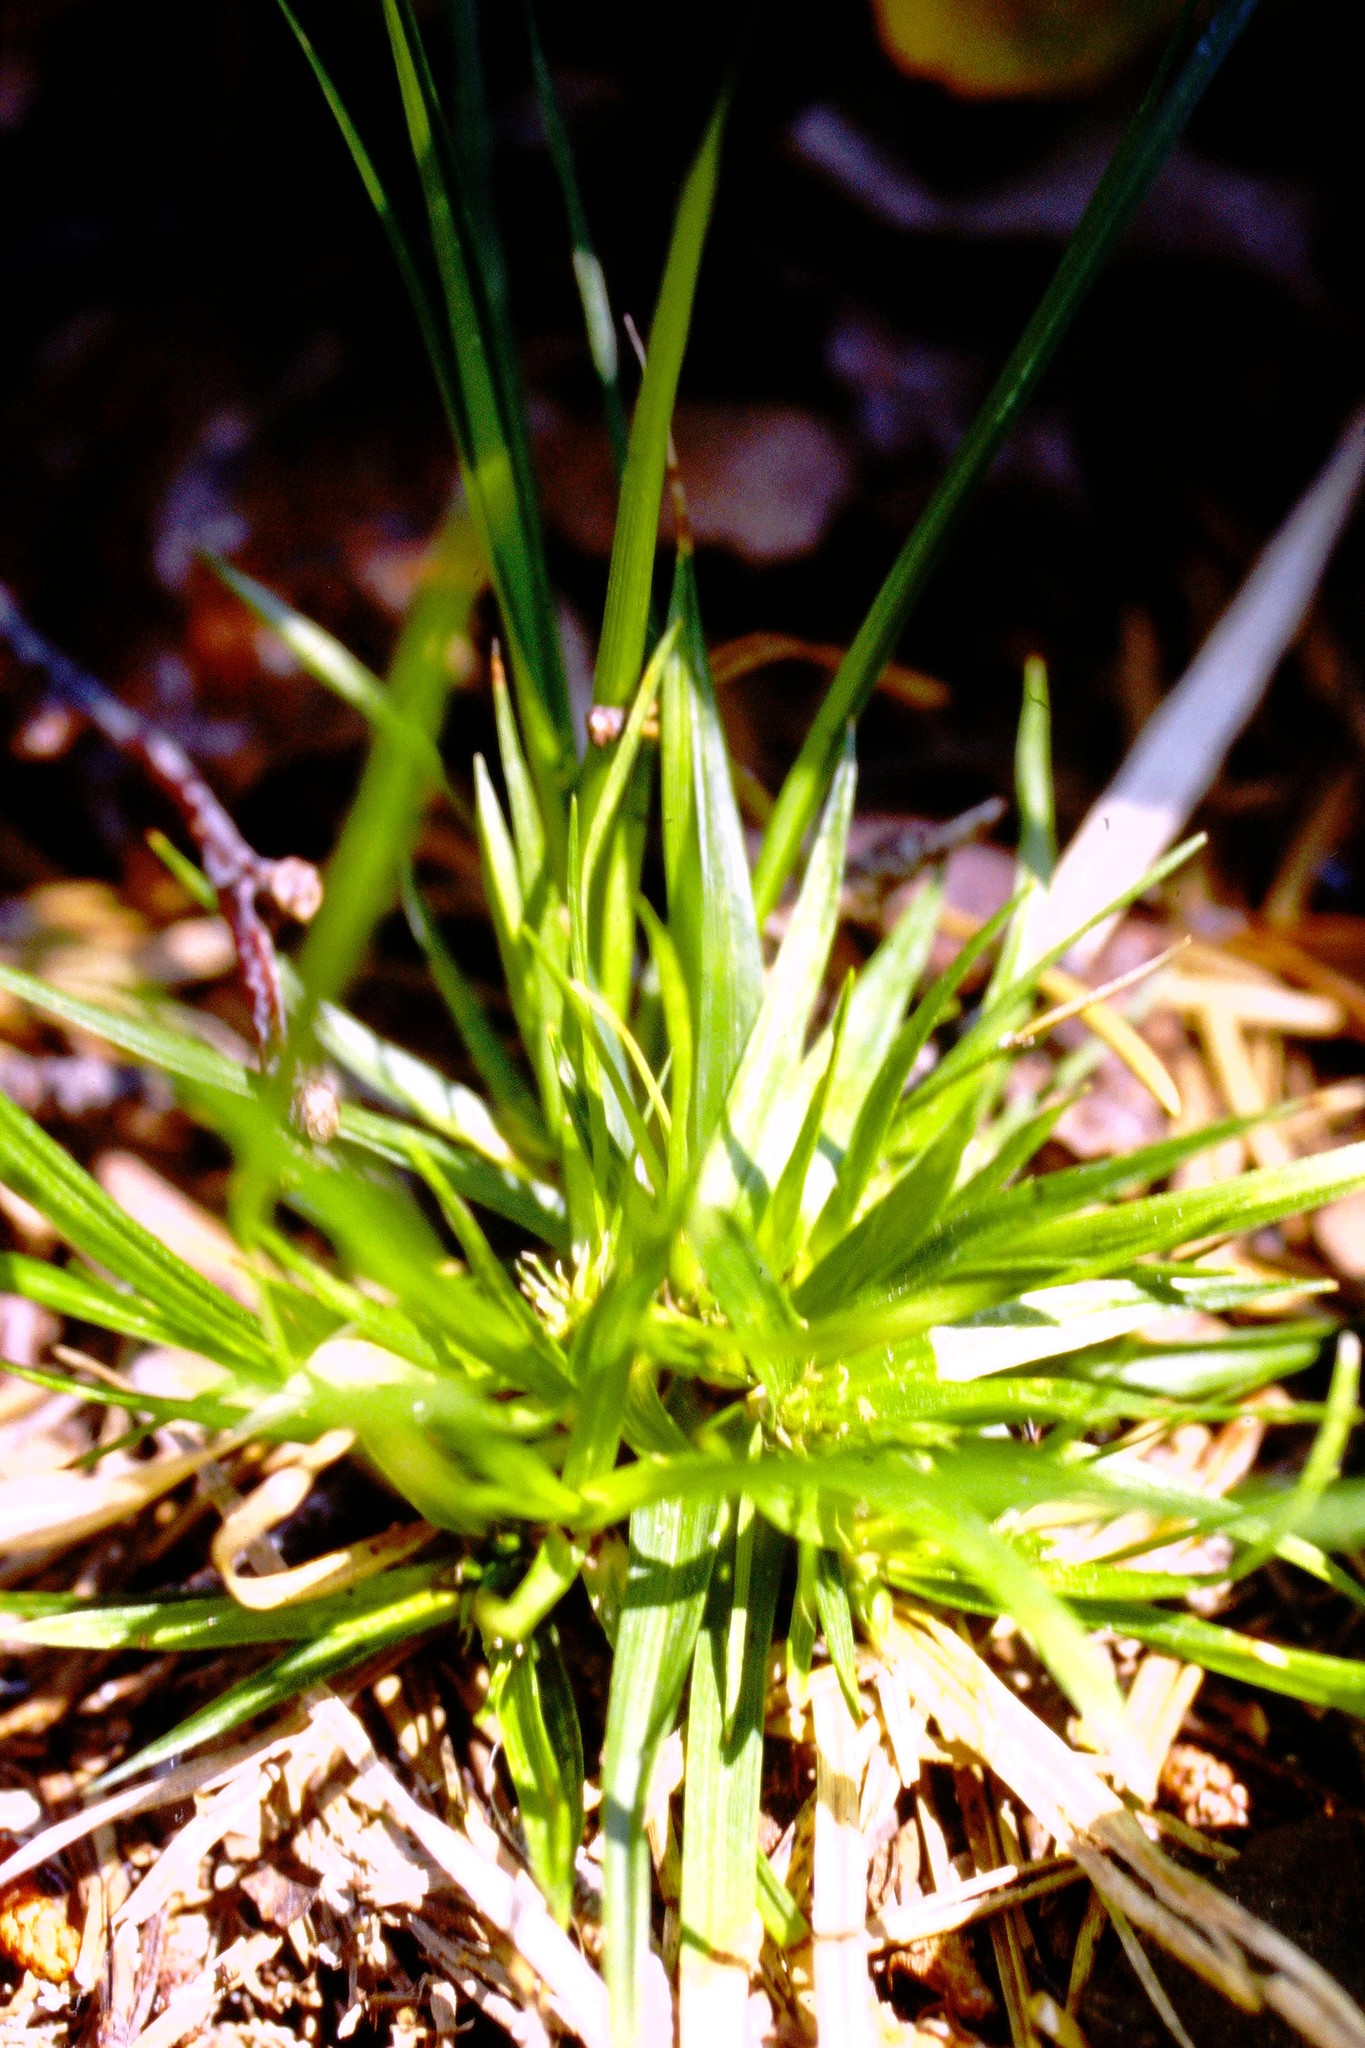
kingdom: Plantae
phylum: Tracheophyta
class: Liliopsida
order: Poales
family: Cyperaceae
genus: Carex
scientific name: Carex tonsa
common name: Bald sedge
